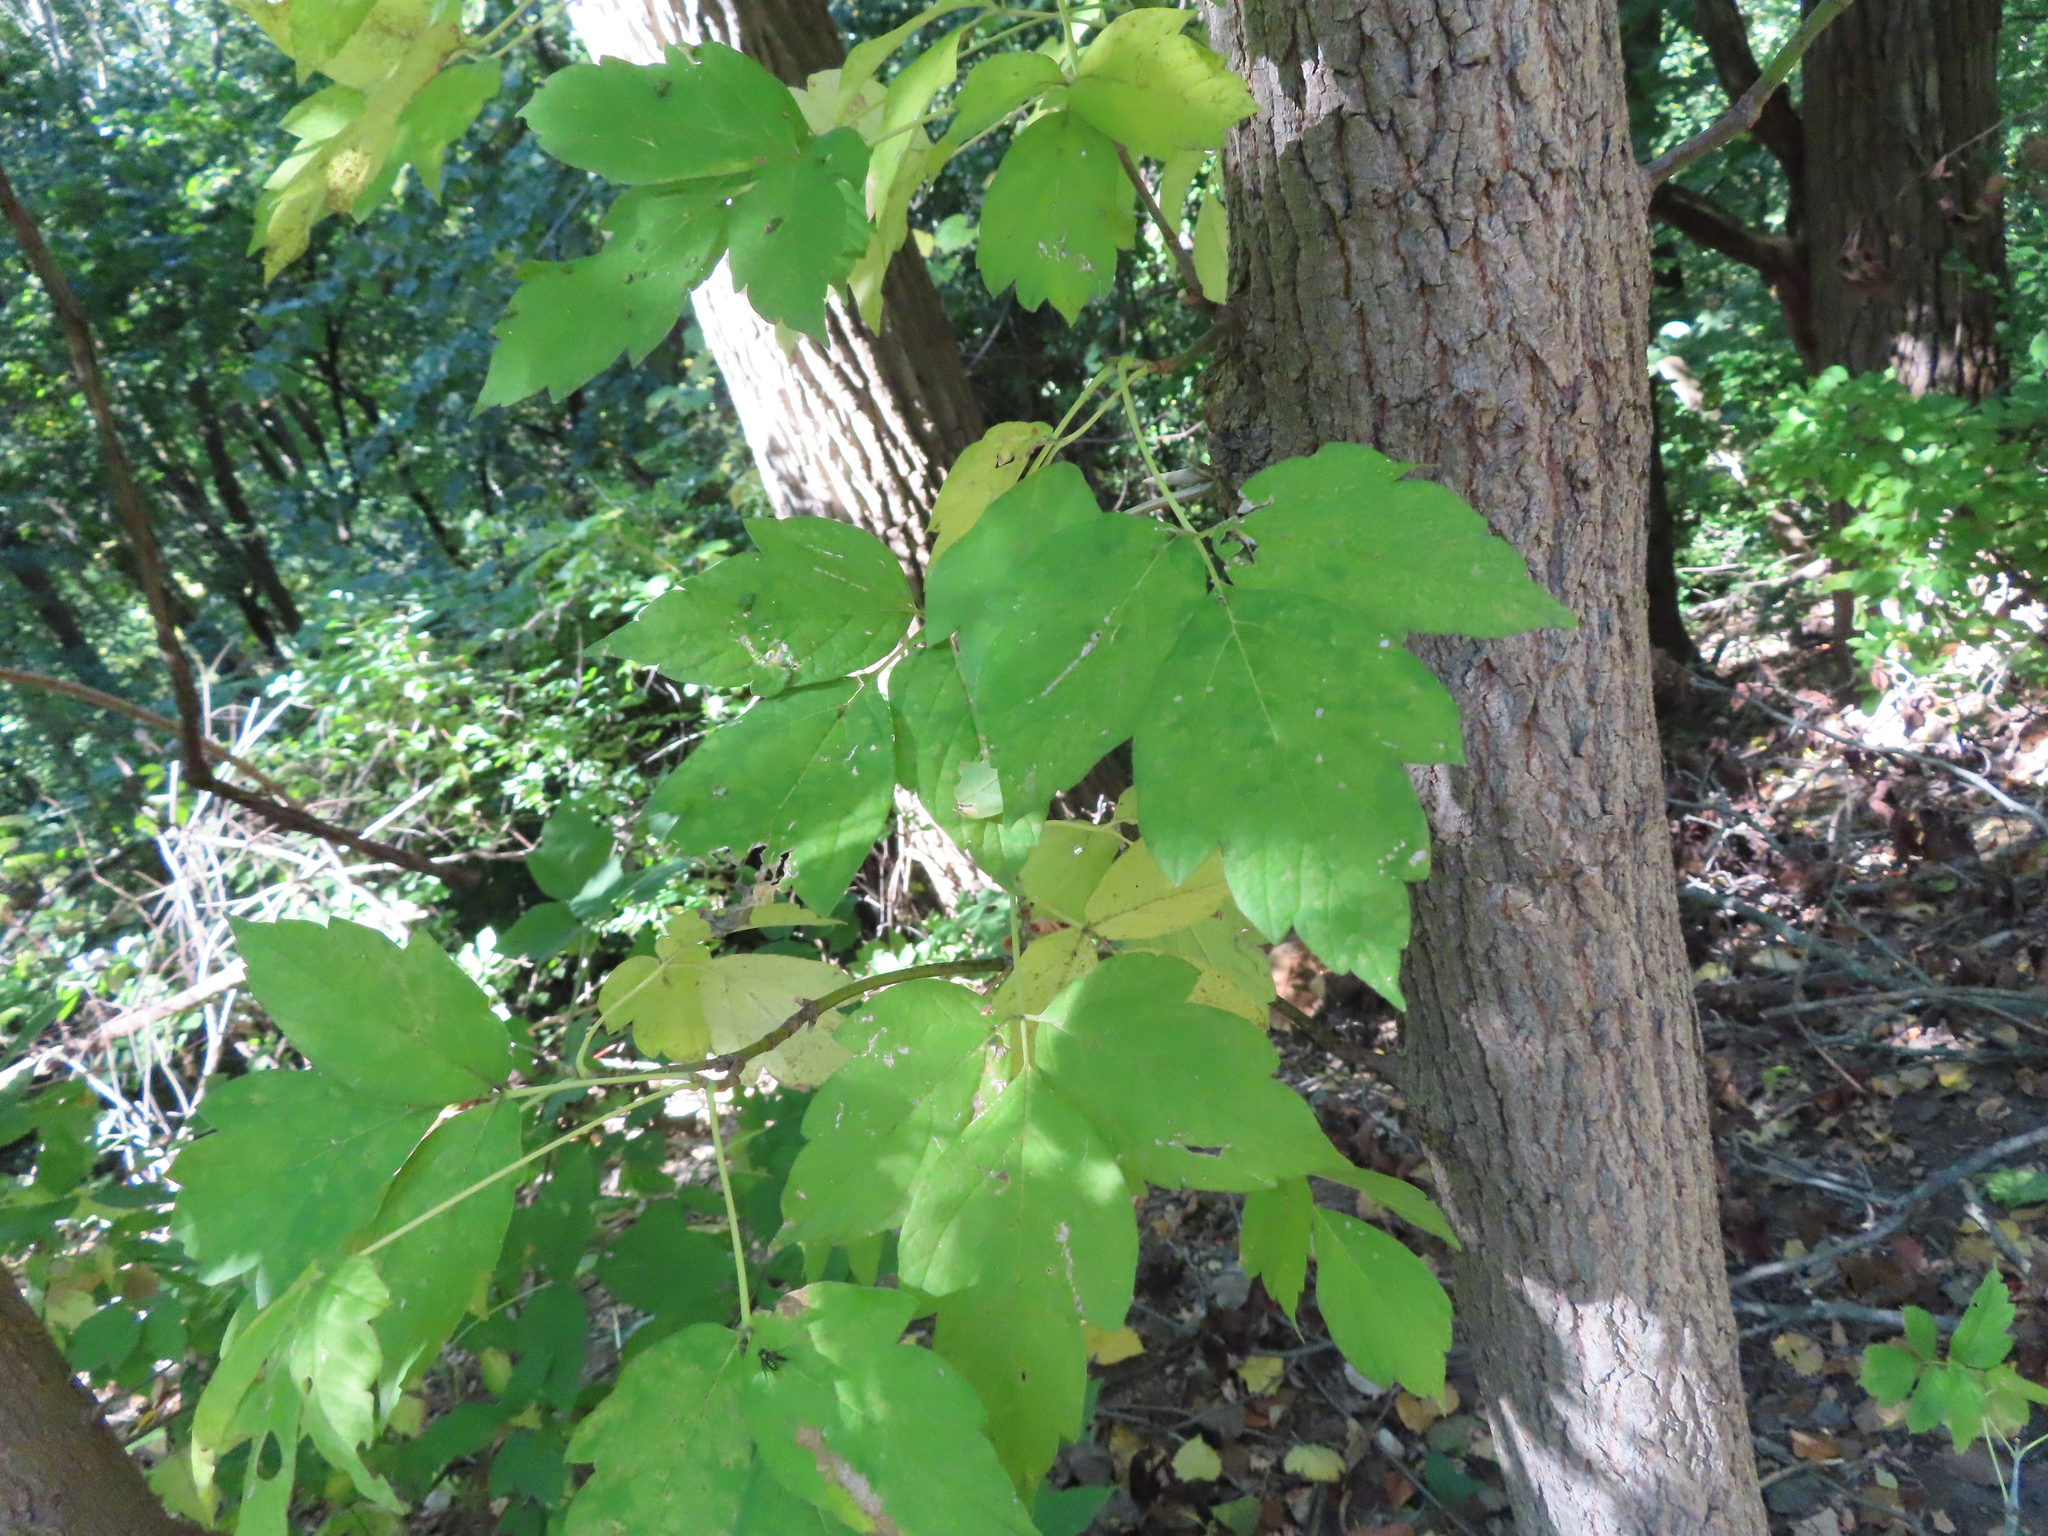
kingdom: Plantae
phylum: Tracheophyta
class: Magnoliopsida
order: Sapindales
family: Sapindaceae
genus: Acer
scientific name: Acer negundo
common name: Ashleaf maple
